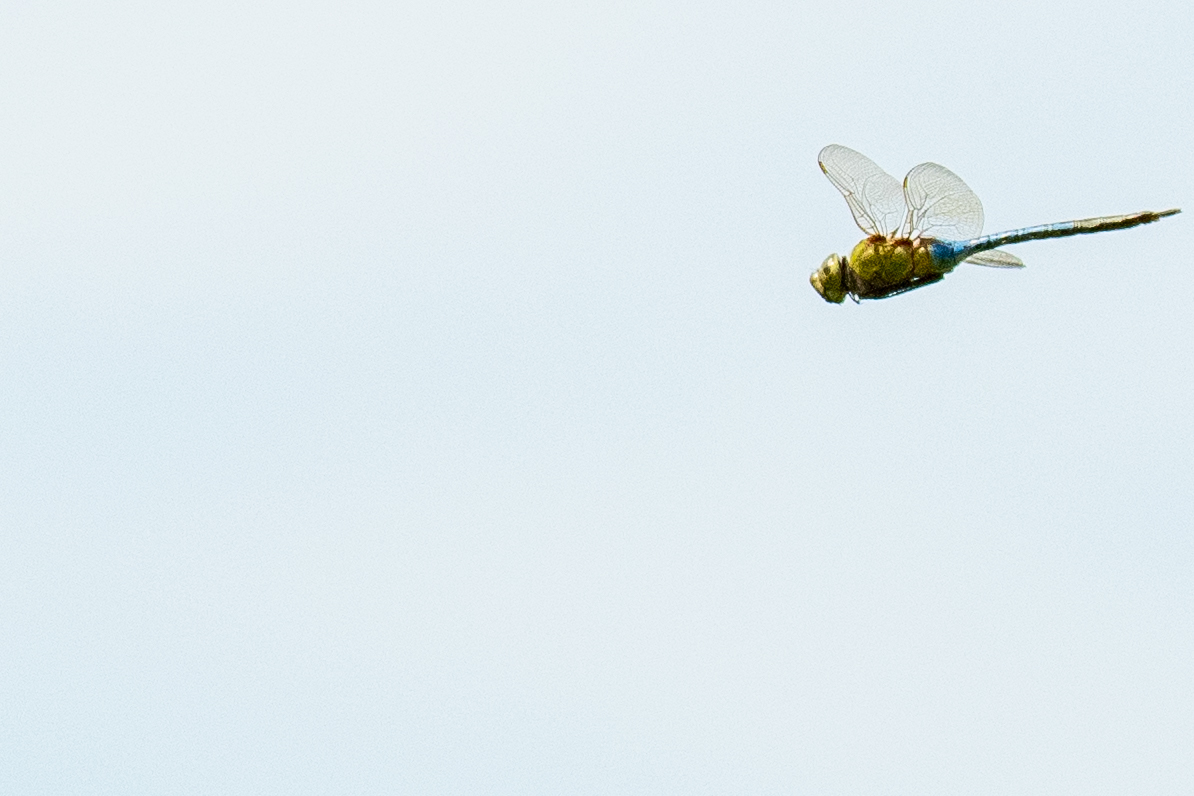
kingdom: Animalia
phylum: Arthropoda
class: Insecta
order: Odonata
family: Aeshnidae
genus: Anax
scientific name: Anax junius
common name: Common green darner
